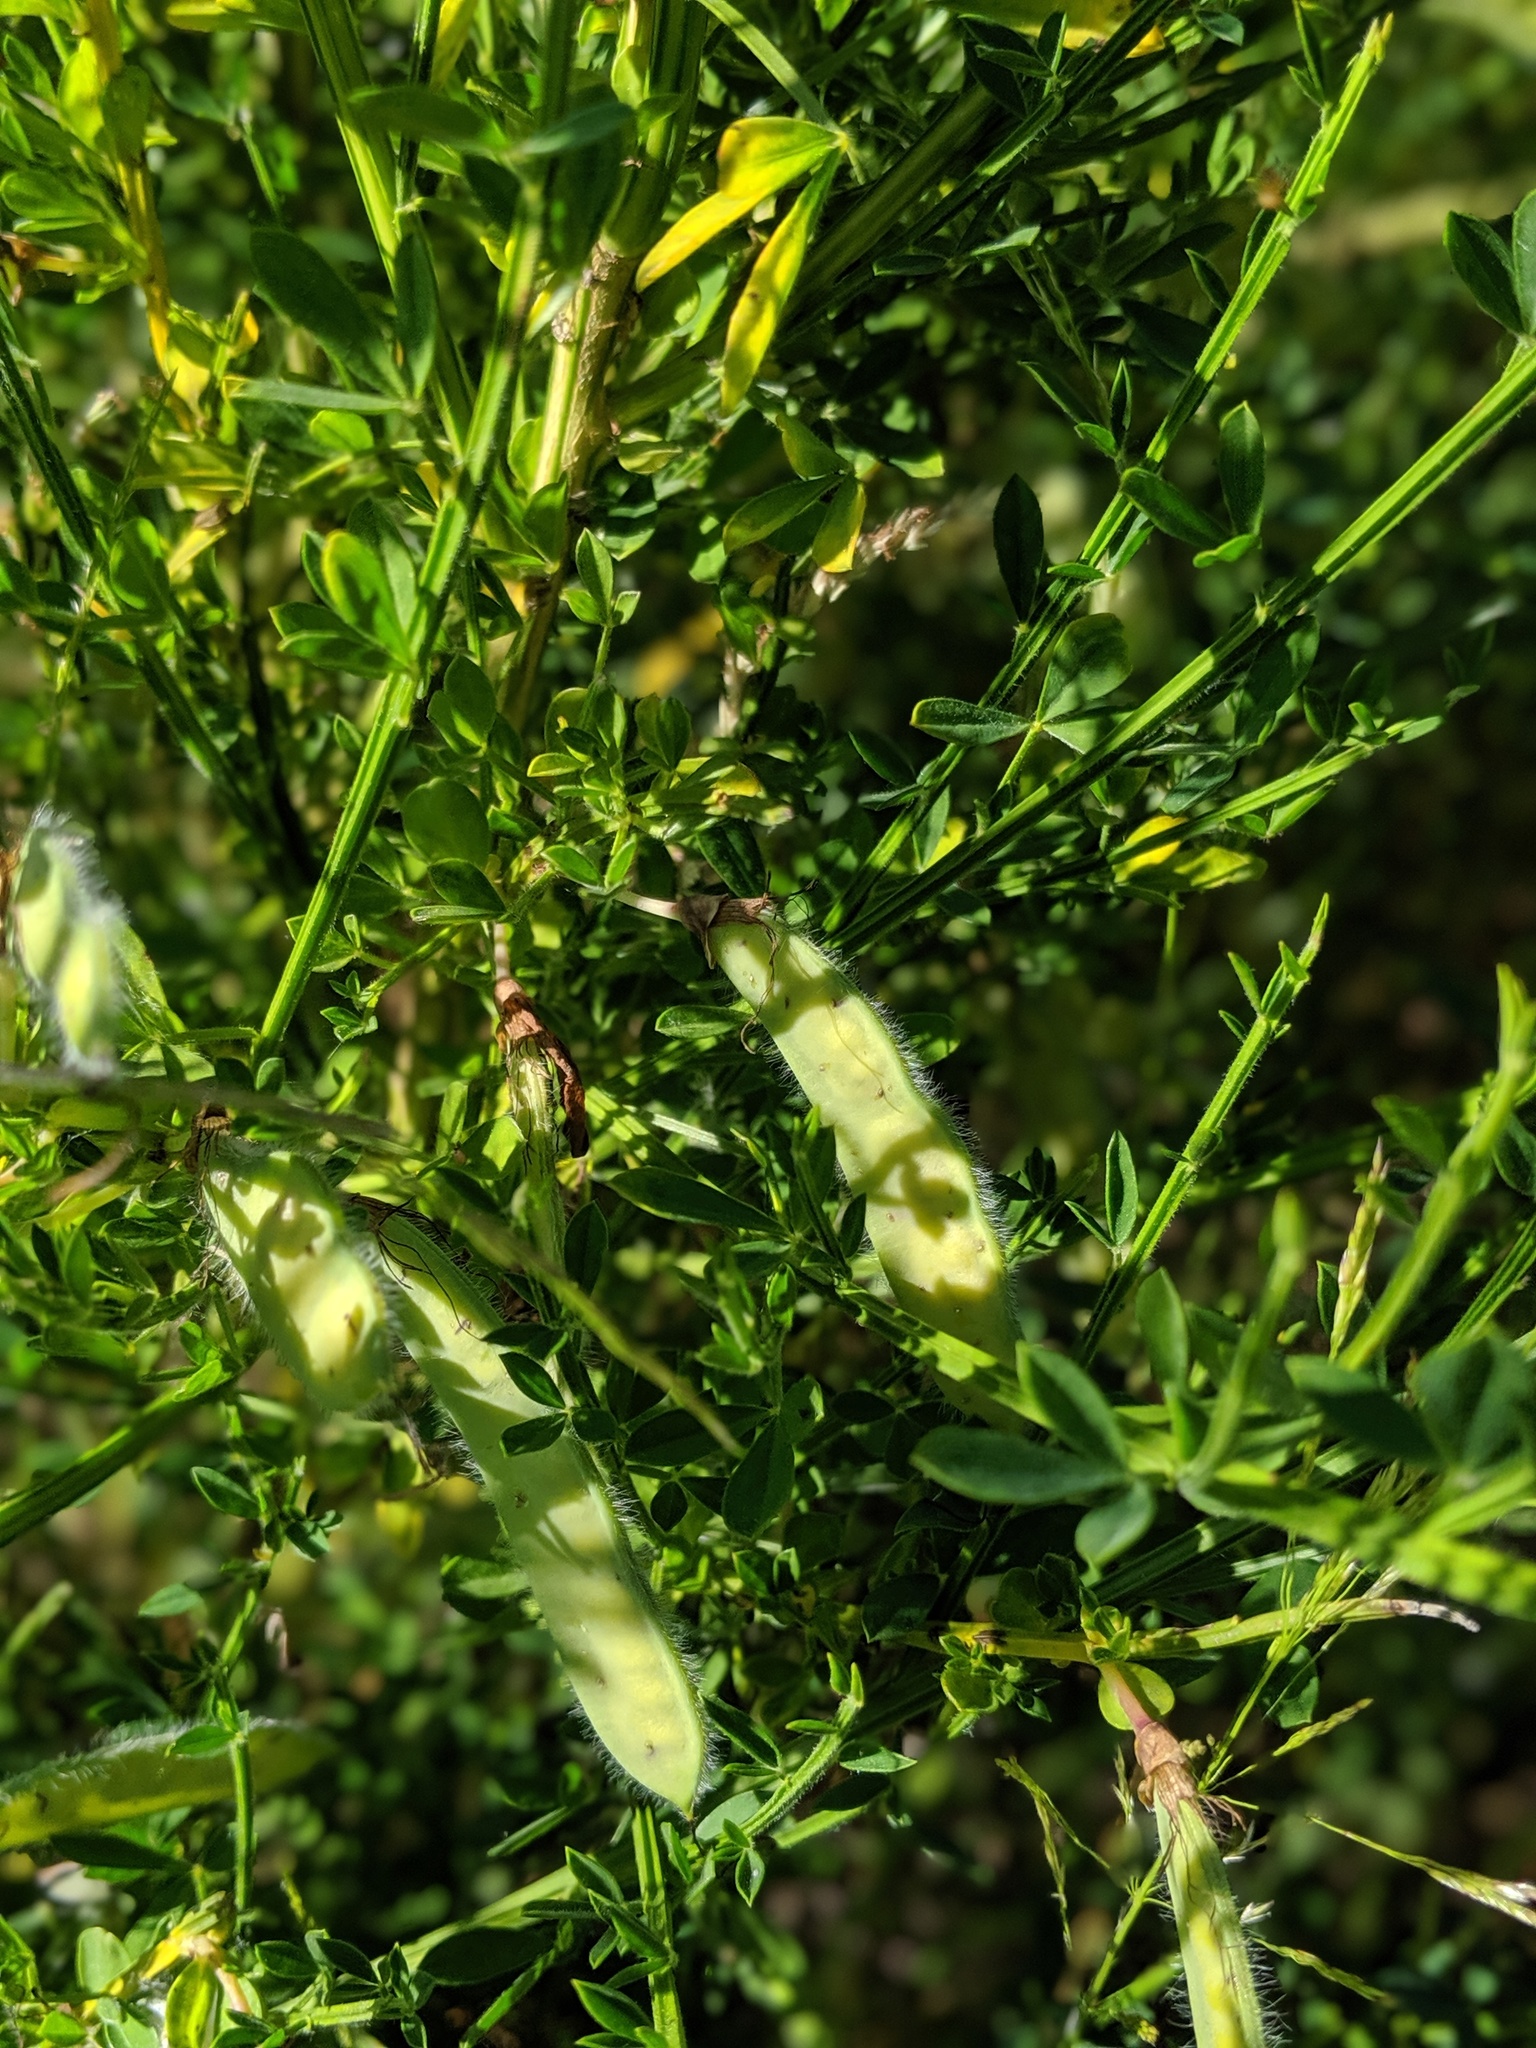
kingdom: Plantae
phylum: Tracheophyta
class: Magnoliopsida
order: Fabales
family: Fabaceae
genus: Cytisus
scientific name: Cytisus scoparius
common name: Scotch broom
